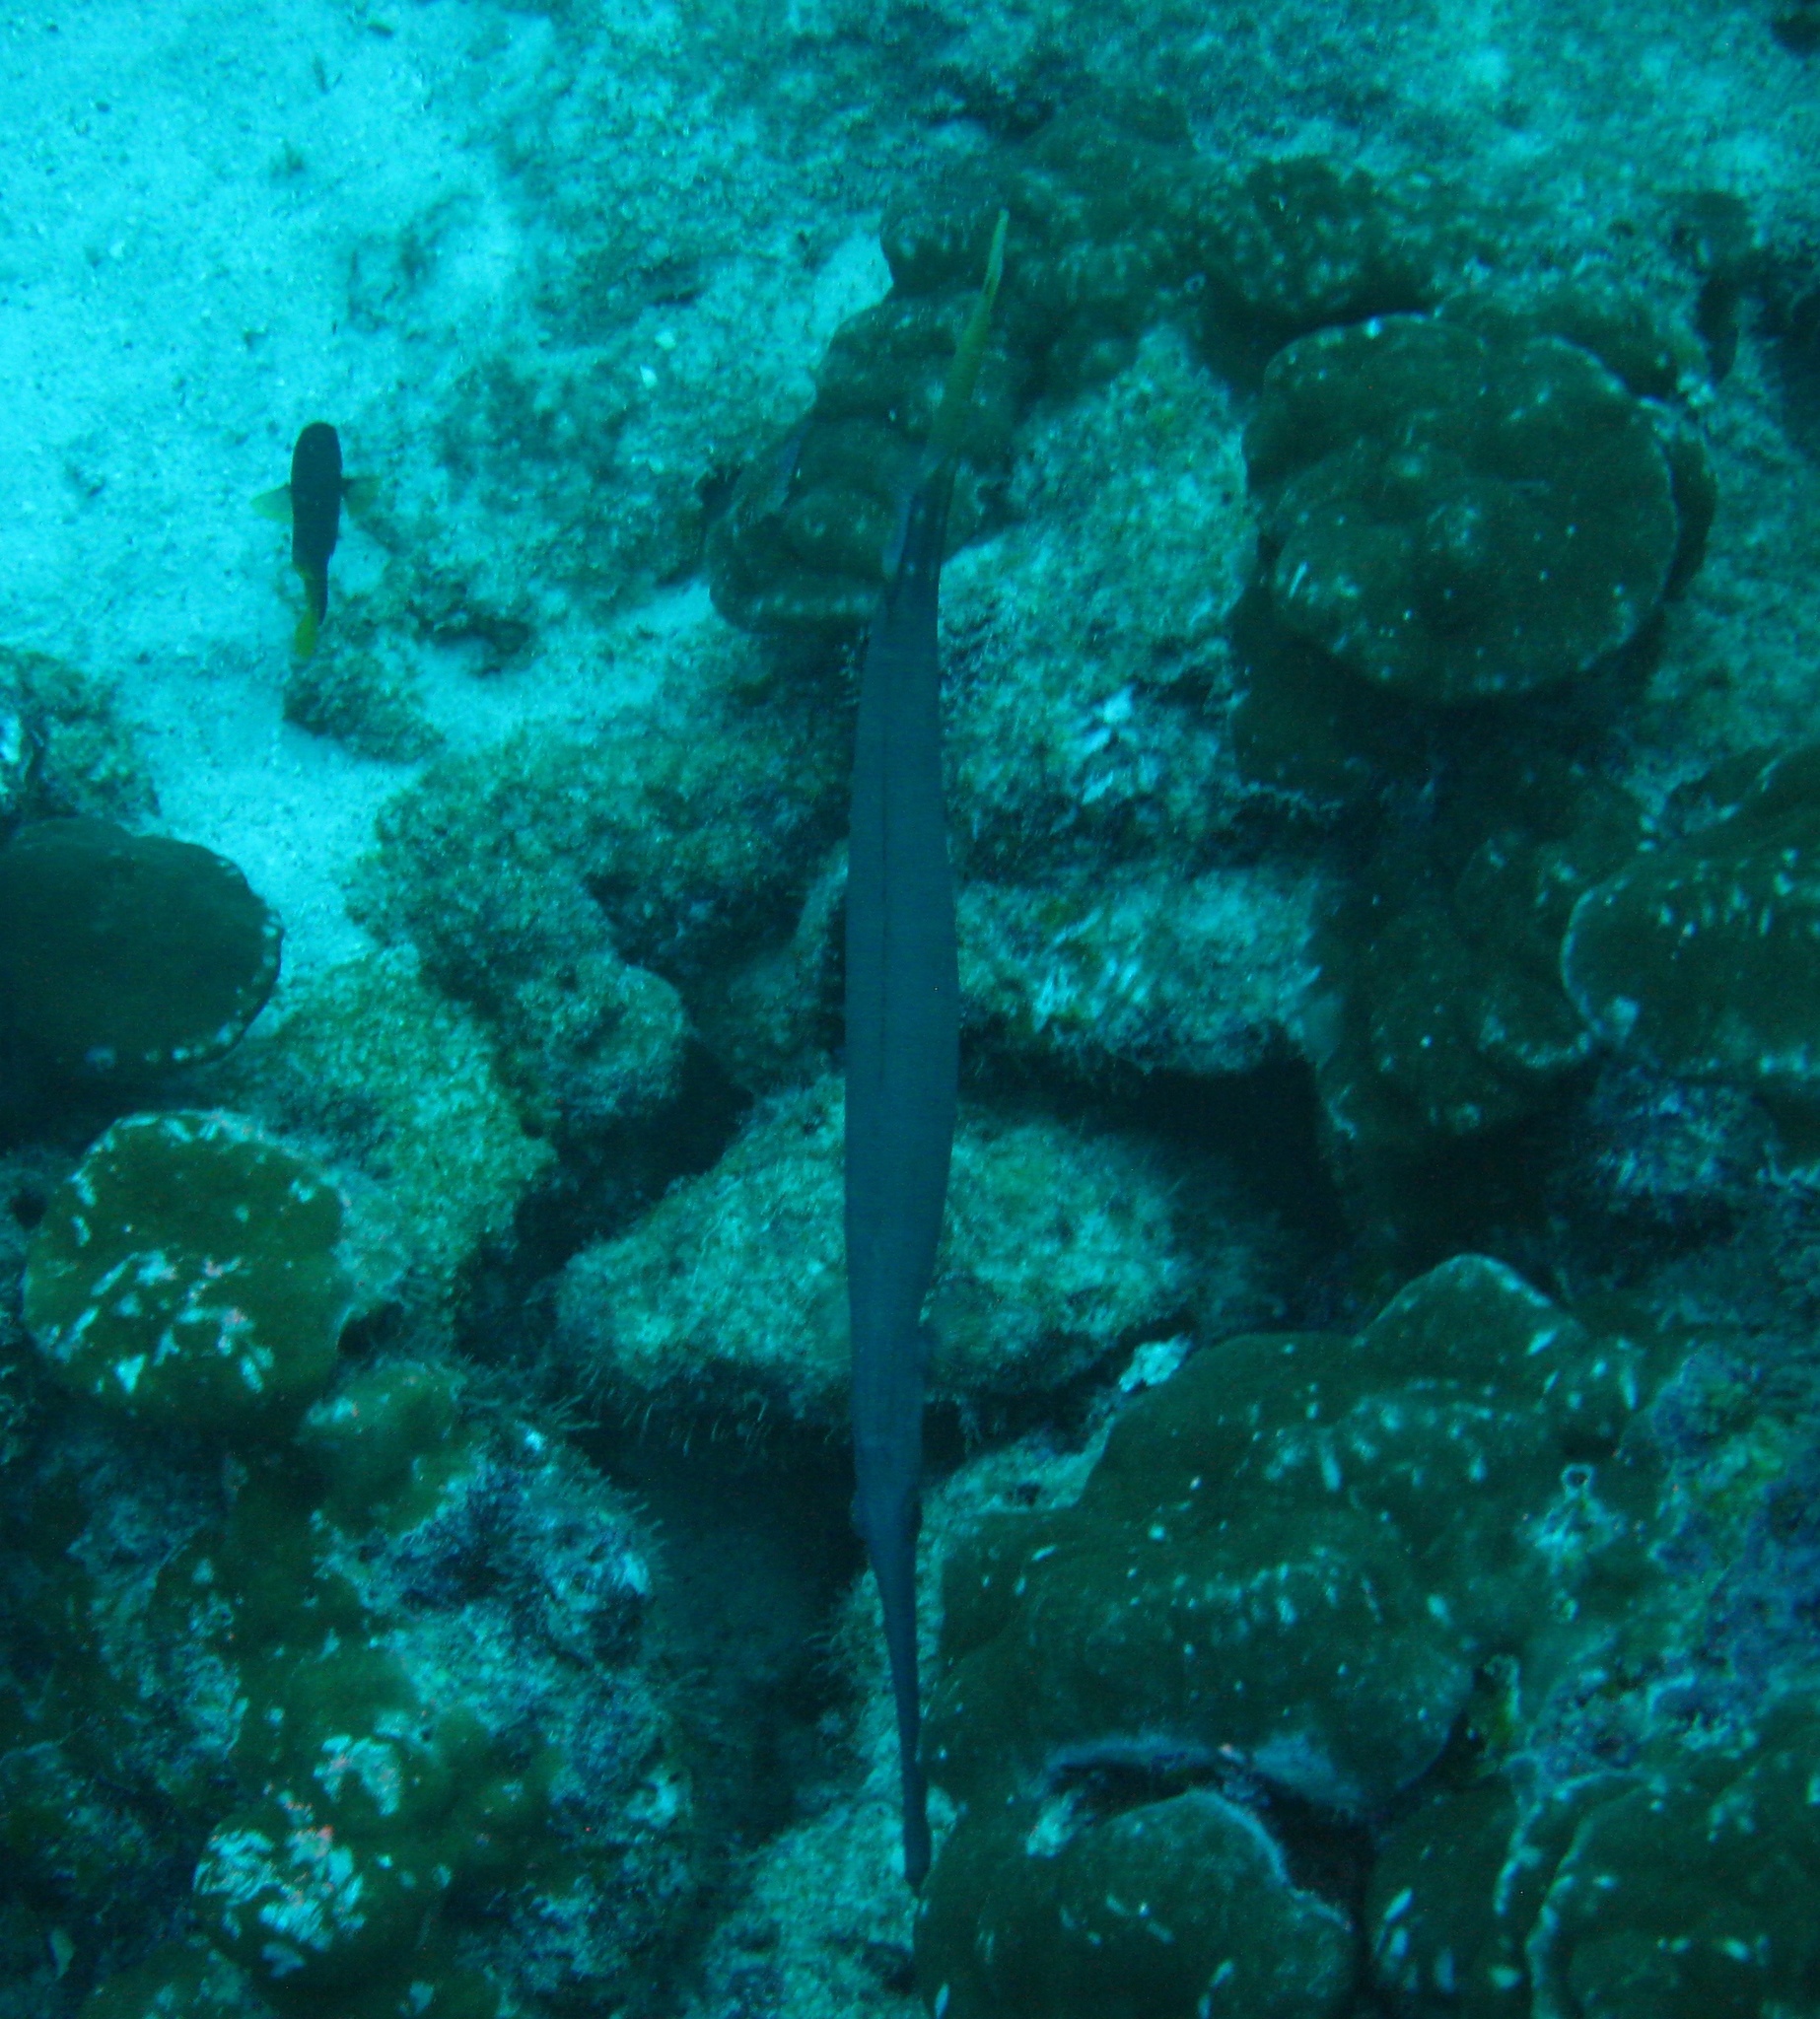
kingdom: Animalia
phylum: Chordata
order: Syngnathiformes
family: Aulostomidae
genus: Aulostomus
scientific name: Aulostomus chinensis
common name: Chinese trumpetfish
